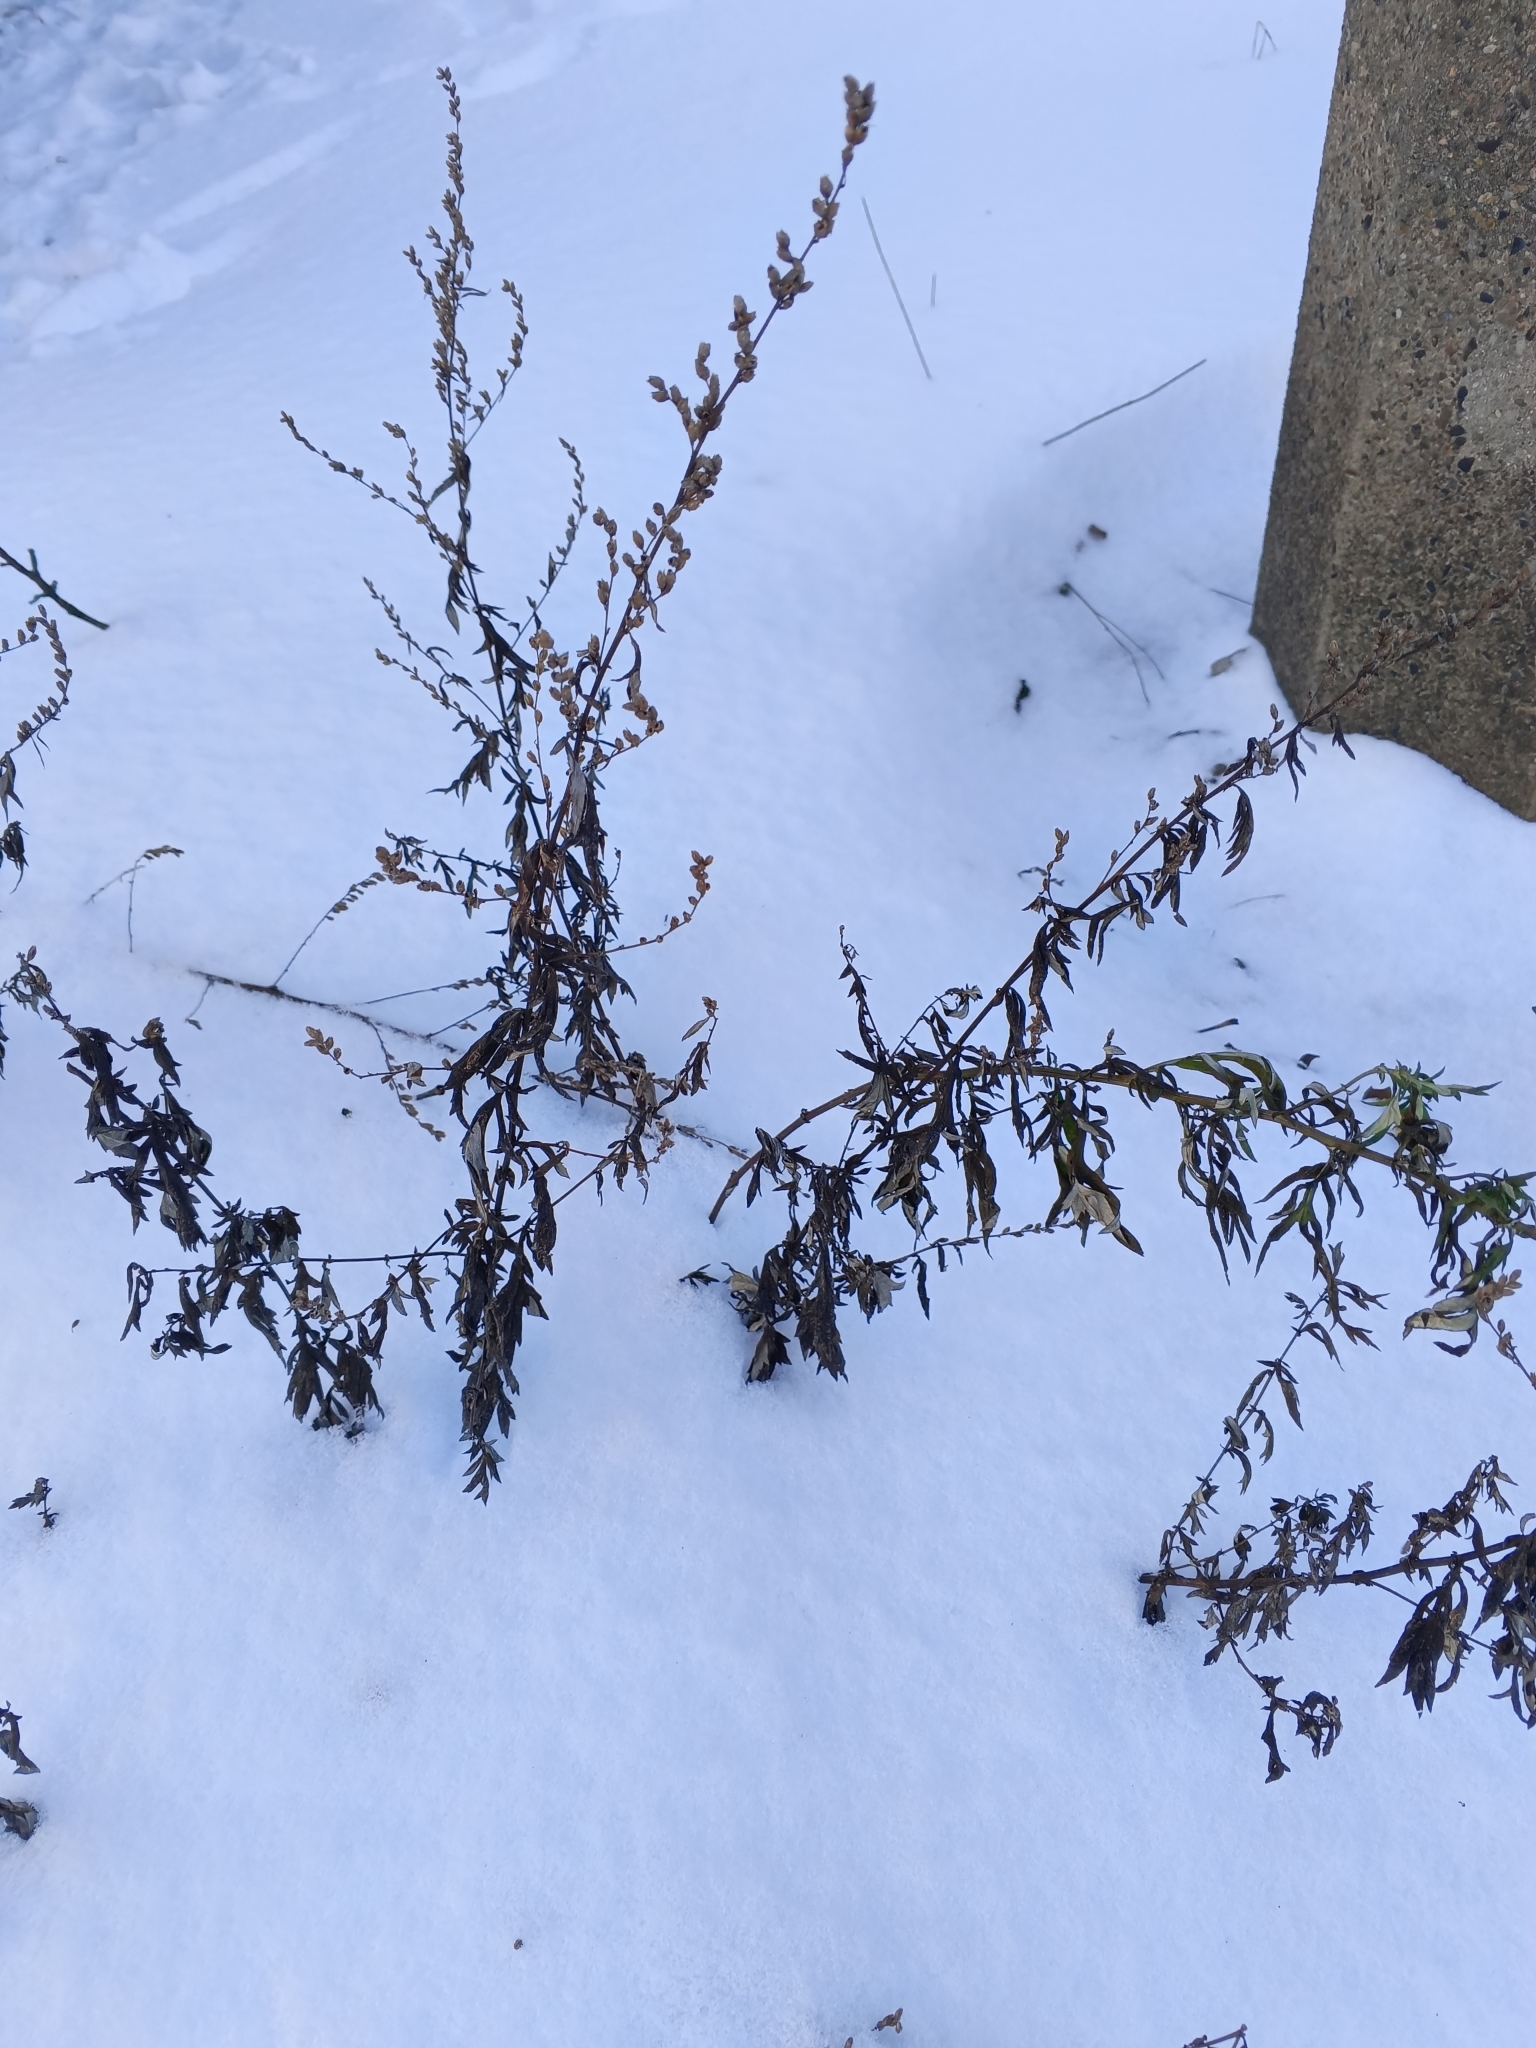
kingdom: Plantae
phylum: Tracheophyta
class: Magnoliopsida
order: Asterales
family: Asteraceae
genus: Artemisia
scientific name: Artemisia vulgaris
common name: Mugwort
